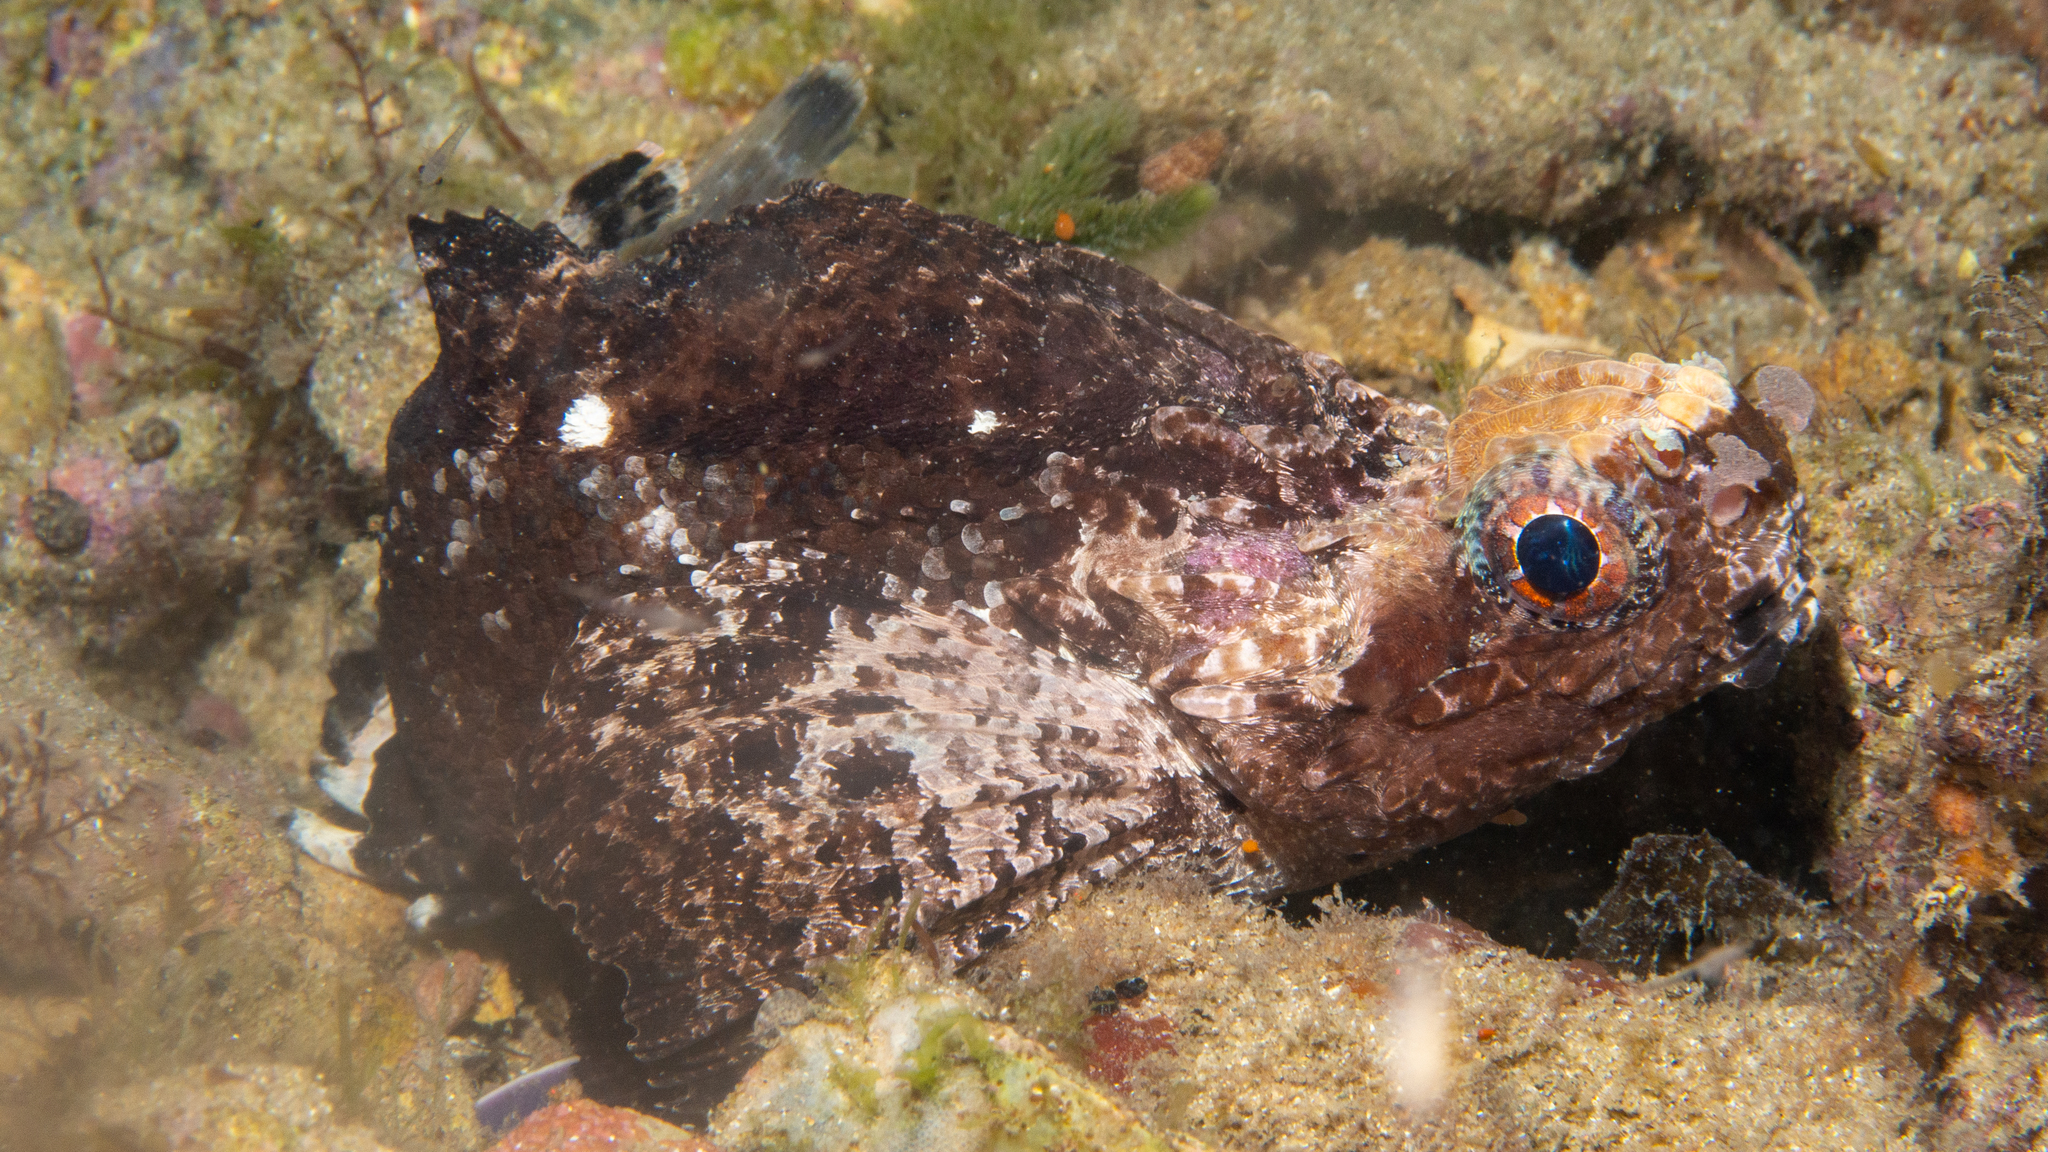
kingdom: Animalia
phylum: Chordata
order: Scorpaeniformes
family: Tetrarogidae
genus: Glyptauchen
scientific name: Glyptauchen panduratus
